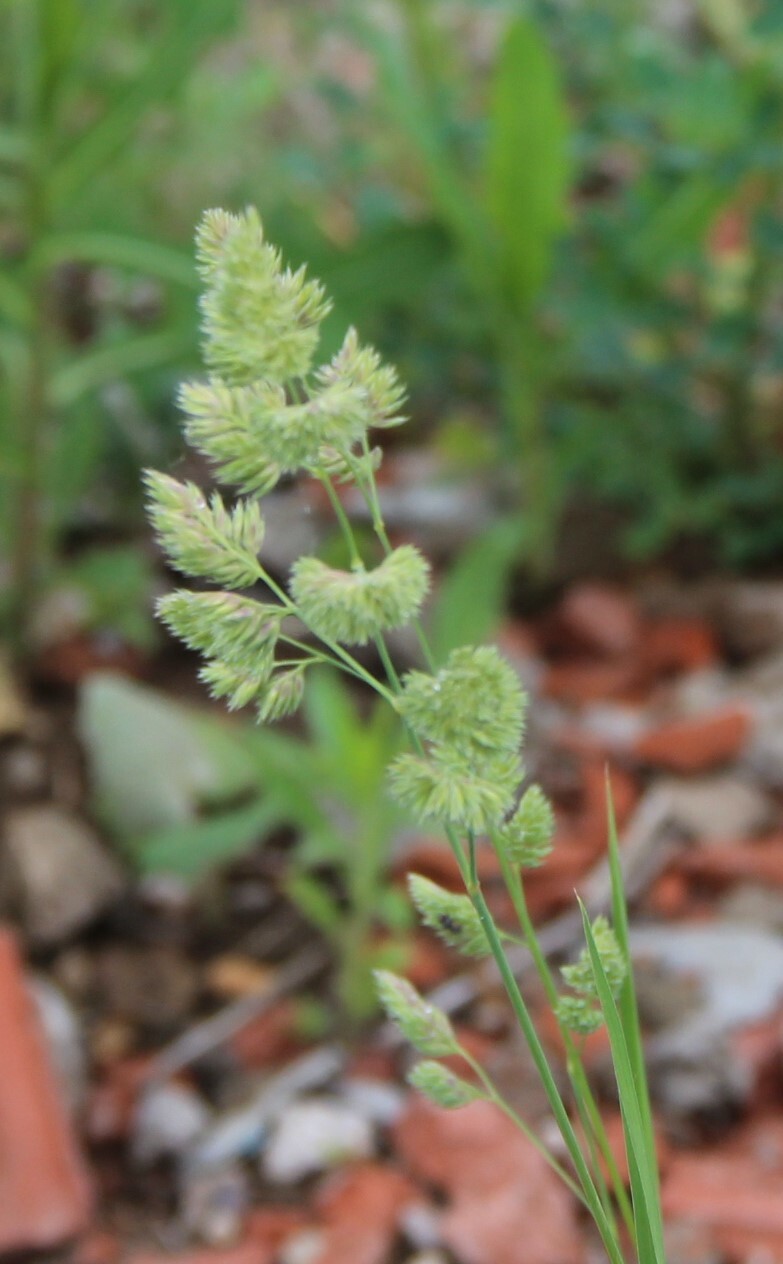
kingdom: Plantae
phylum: Tracheophyta
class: Liliopsida
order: Poales
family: Poaceae
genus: Dactylis
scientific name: Dactylis glomerata
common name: Orchardgrass
